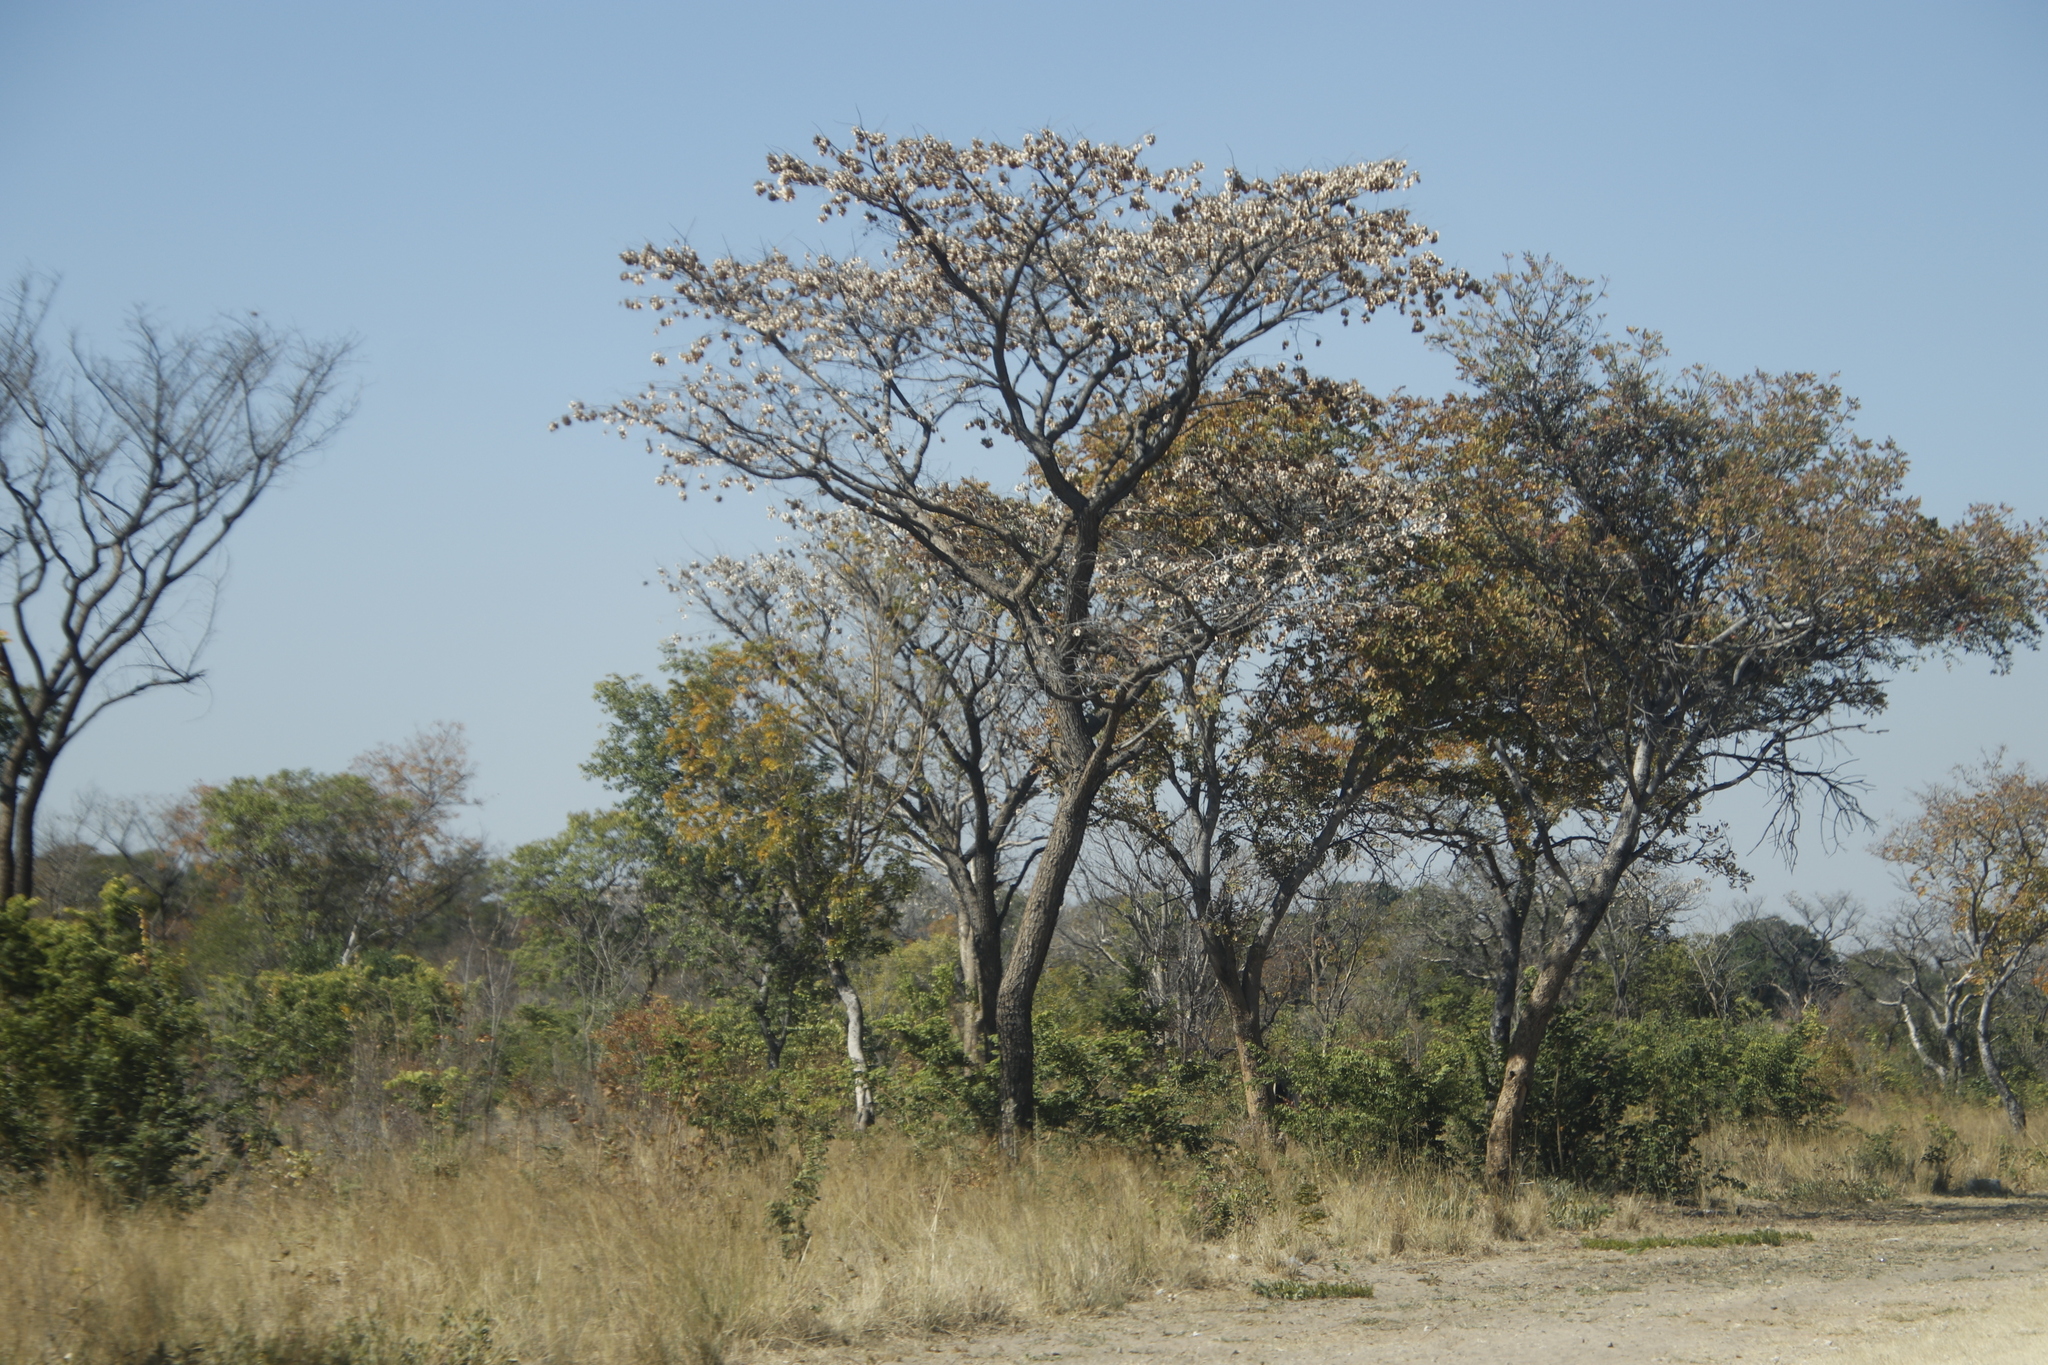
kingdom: Plantae
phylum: Tracheophyta
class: Magnoliopsida
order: Fabales
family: Fabaceae
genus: Pterocarpus
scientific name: Pterocarpus angolensis
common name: Bloodwood tree
